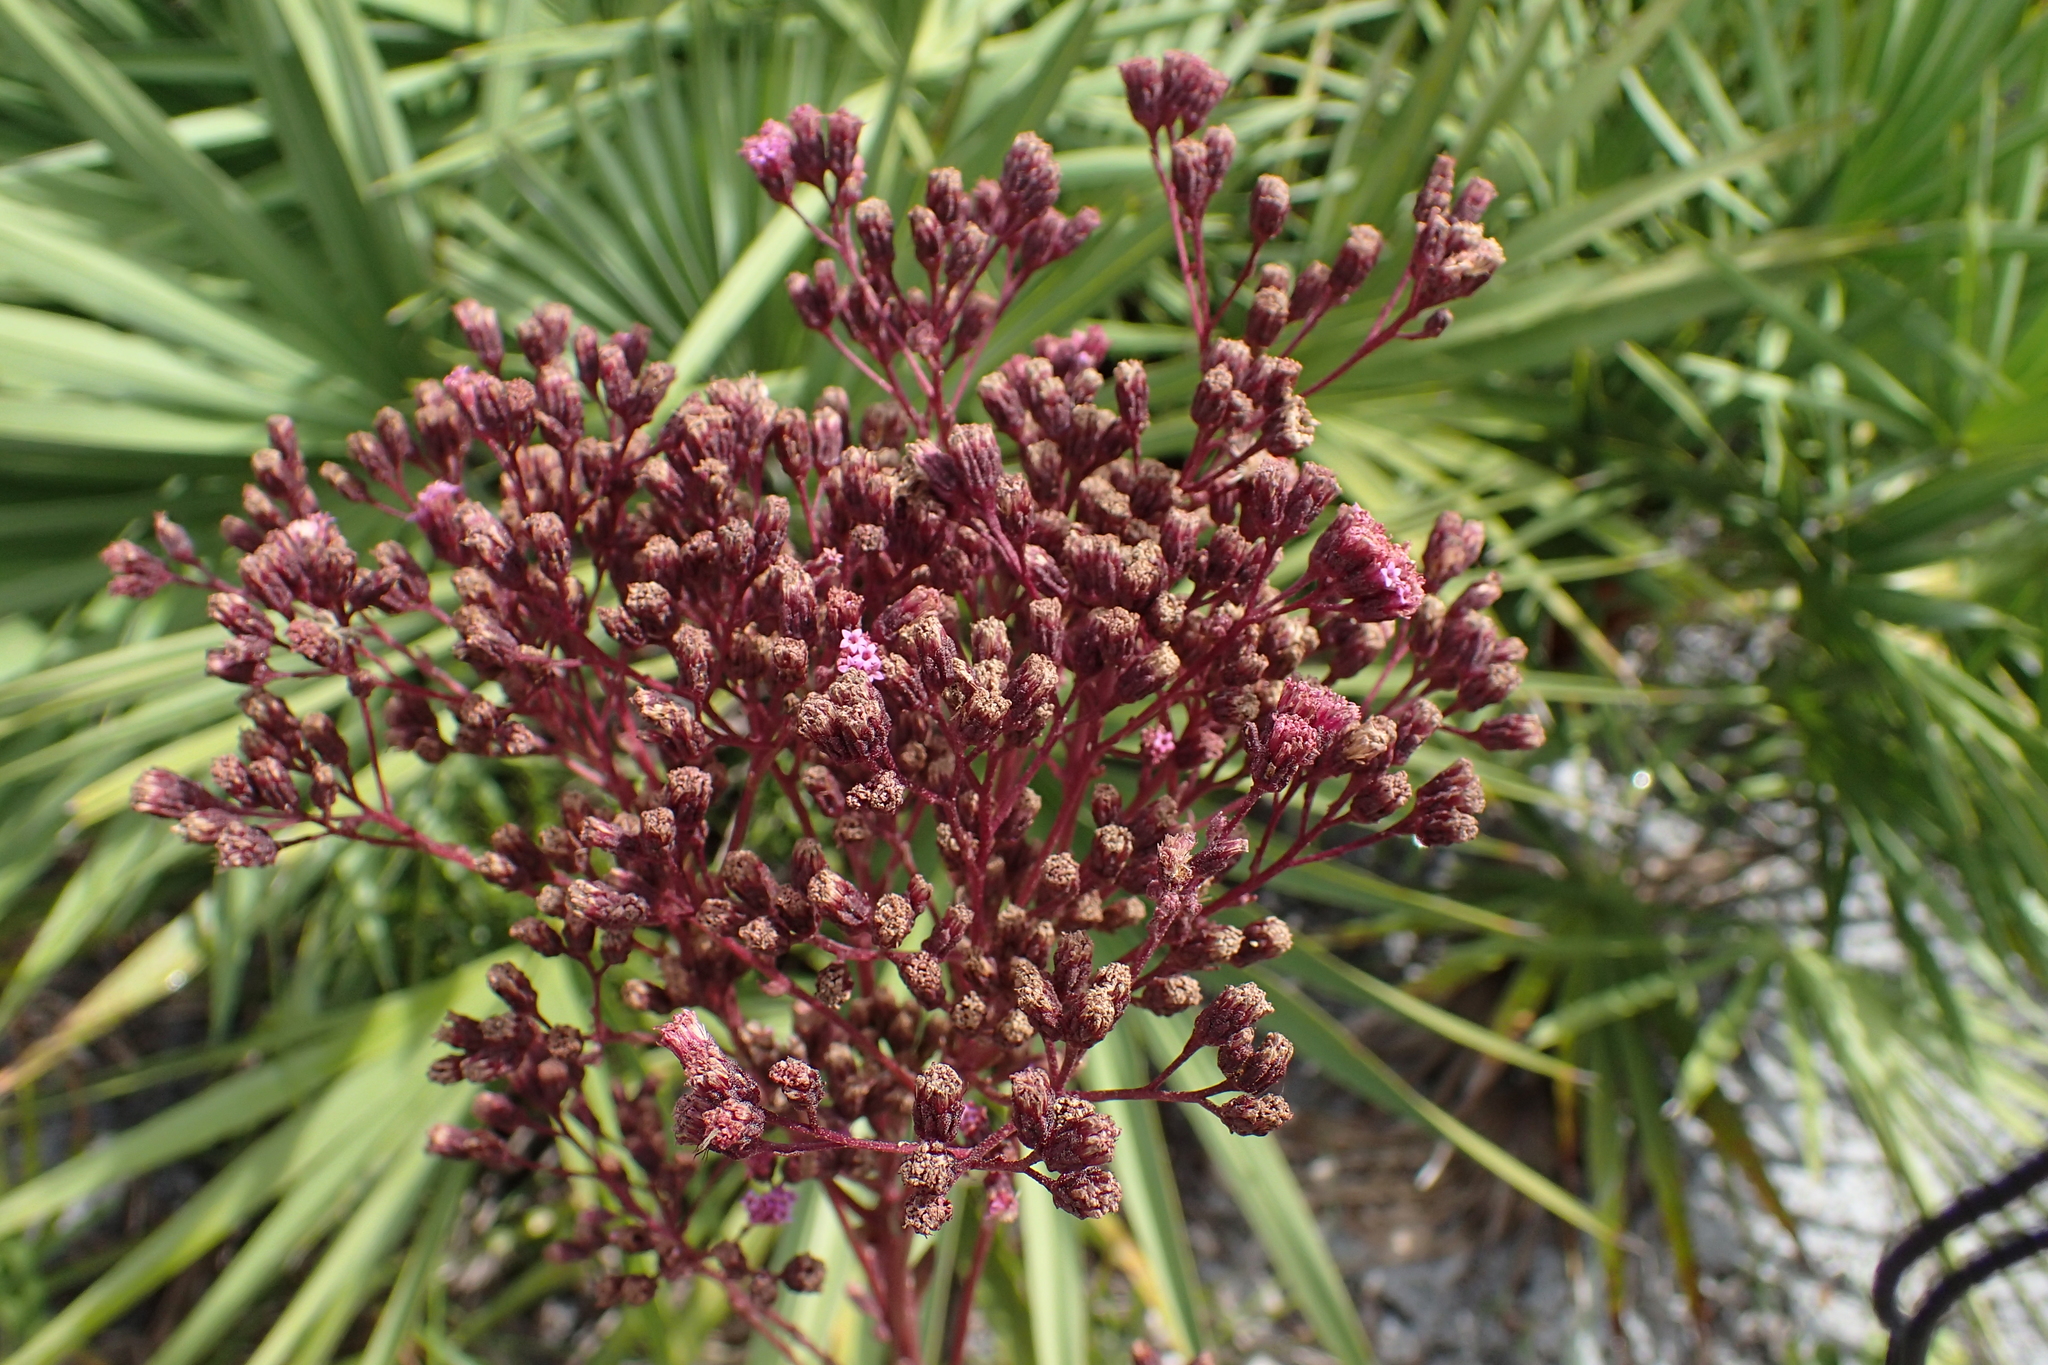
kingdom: Plantae
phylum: Tracheophyta
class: Magnoliopsida
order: Asterales
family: Asteraceae
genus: Carphephorus
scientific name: Carphephorus odoratissimus
